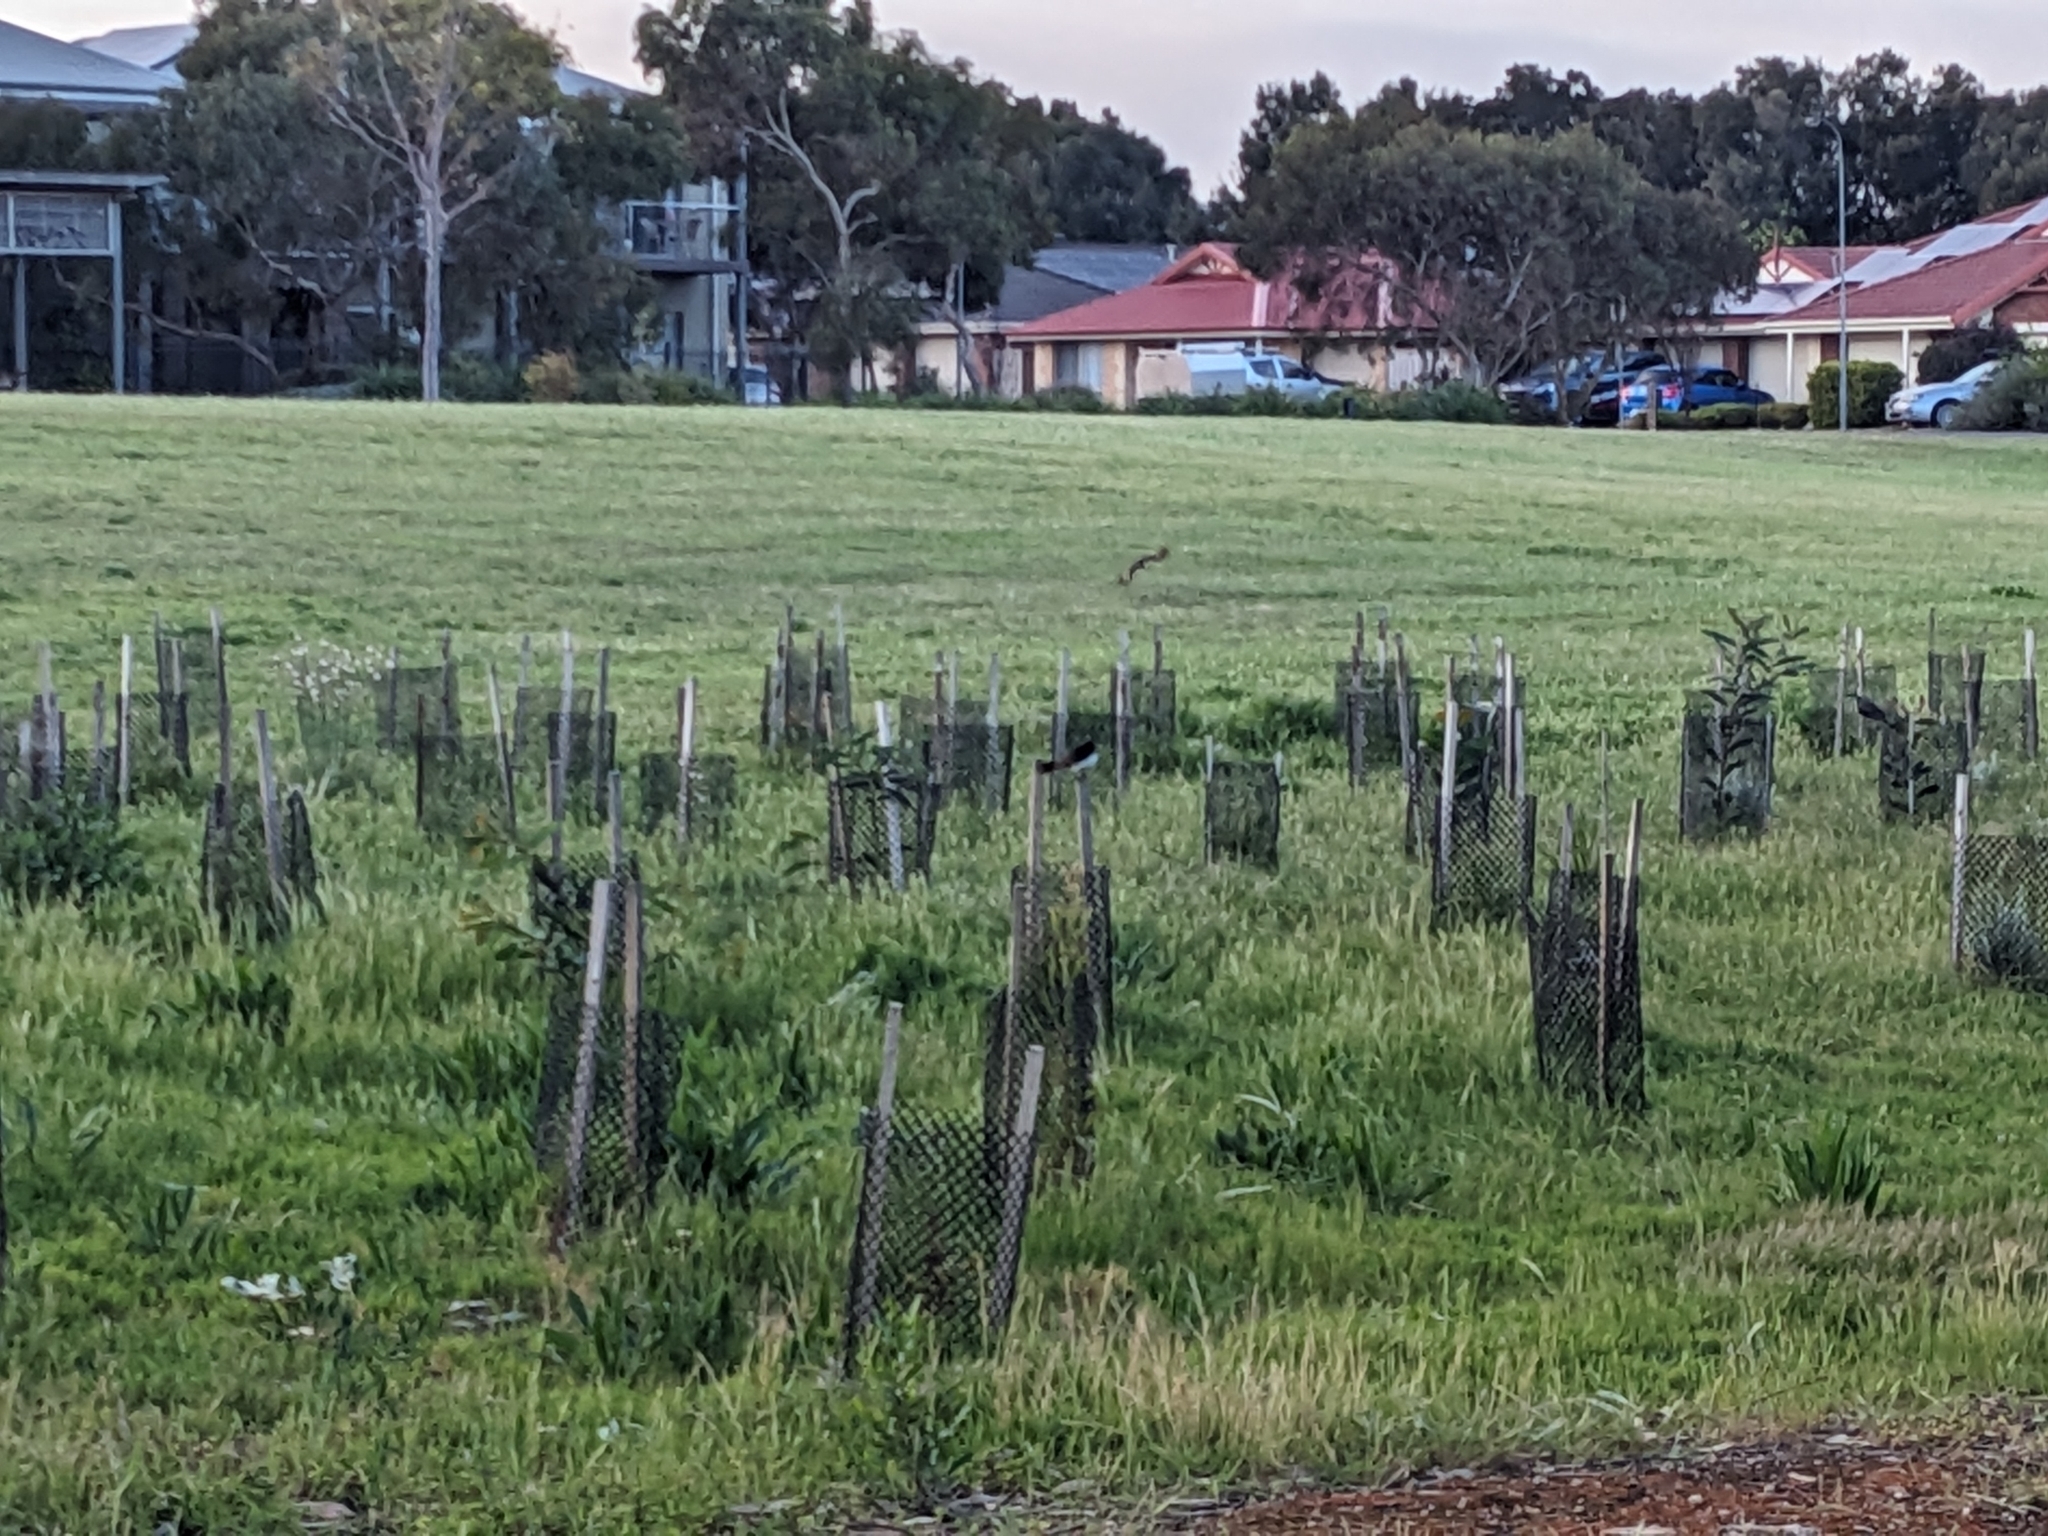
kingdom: Animalia
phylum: Chordata
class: Aves
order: Passeriformes
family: Rhipiduridae
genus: Rhipidura
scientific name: Rhipidura leucophrys
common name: Willie wagtail
